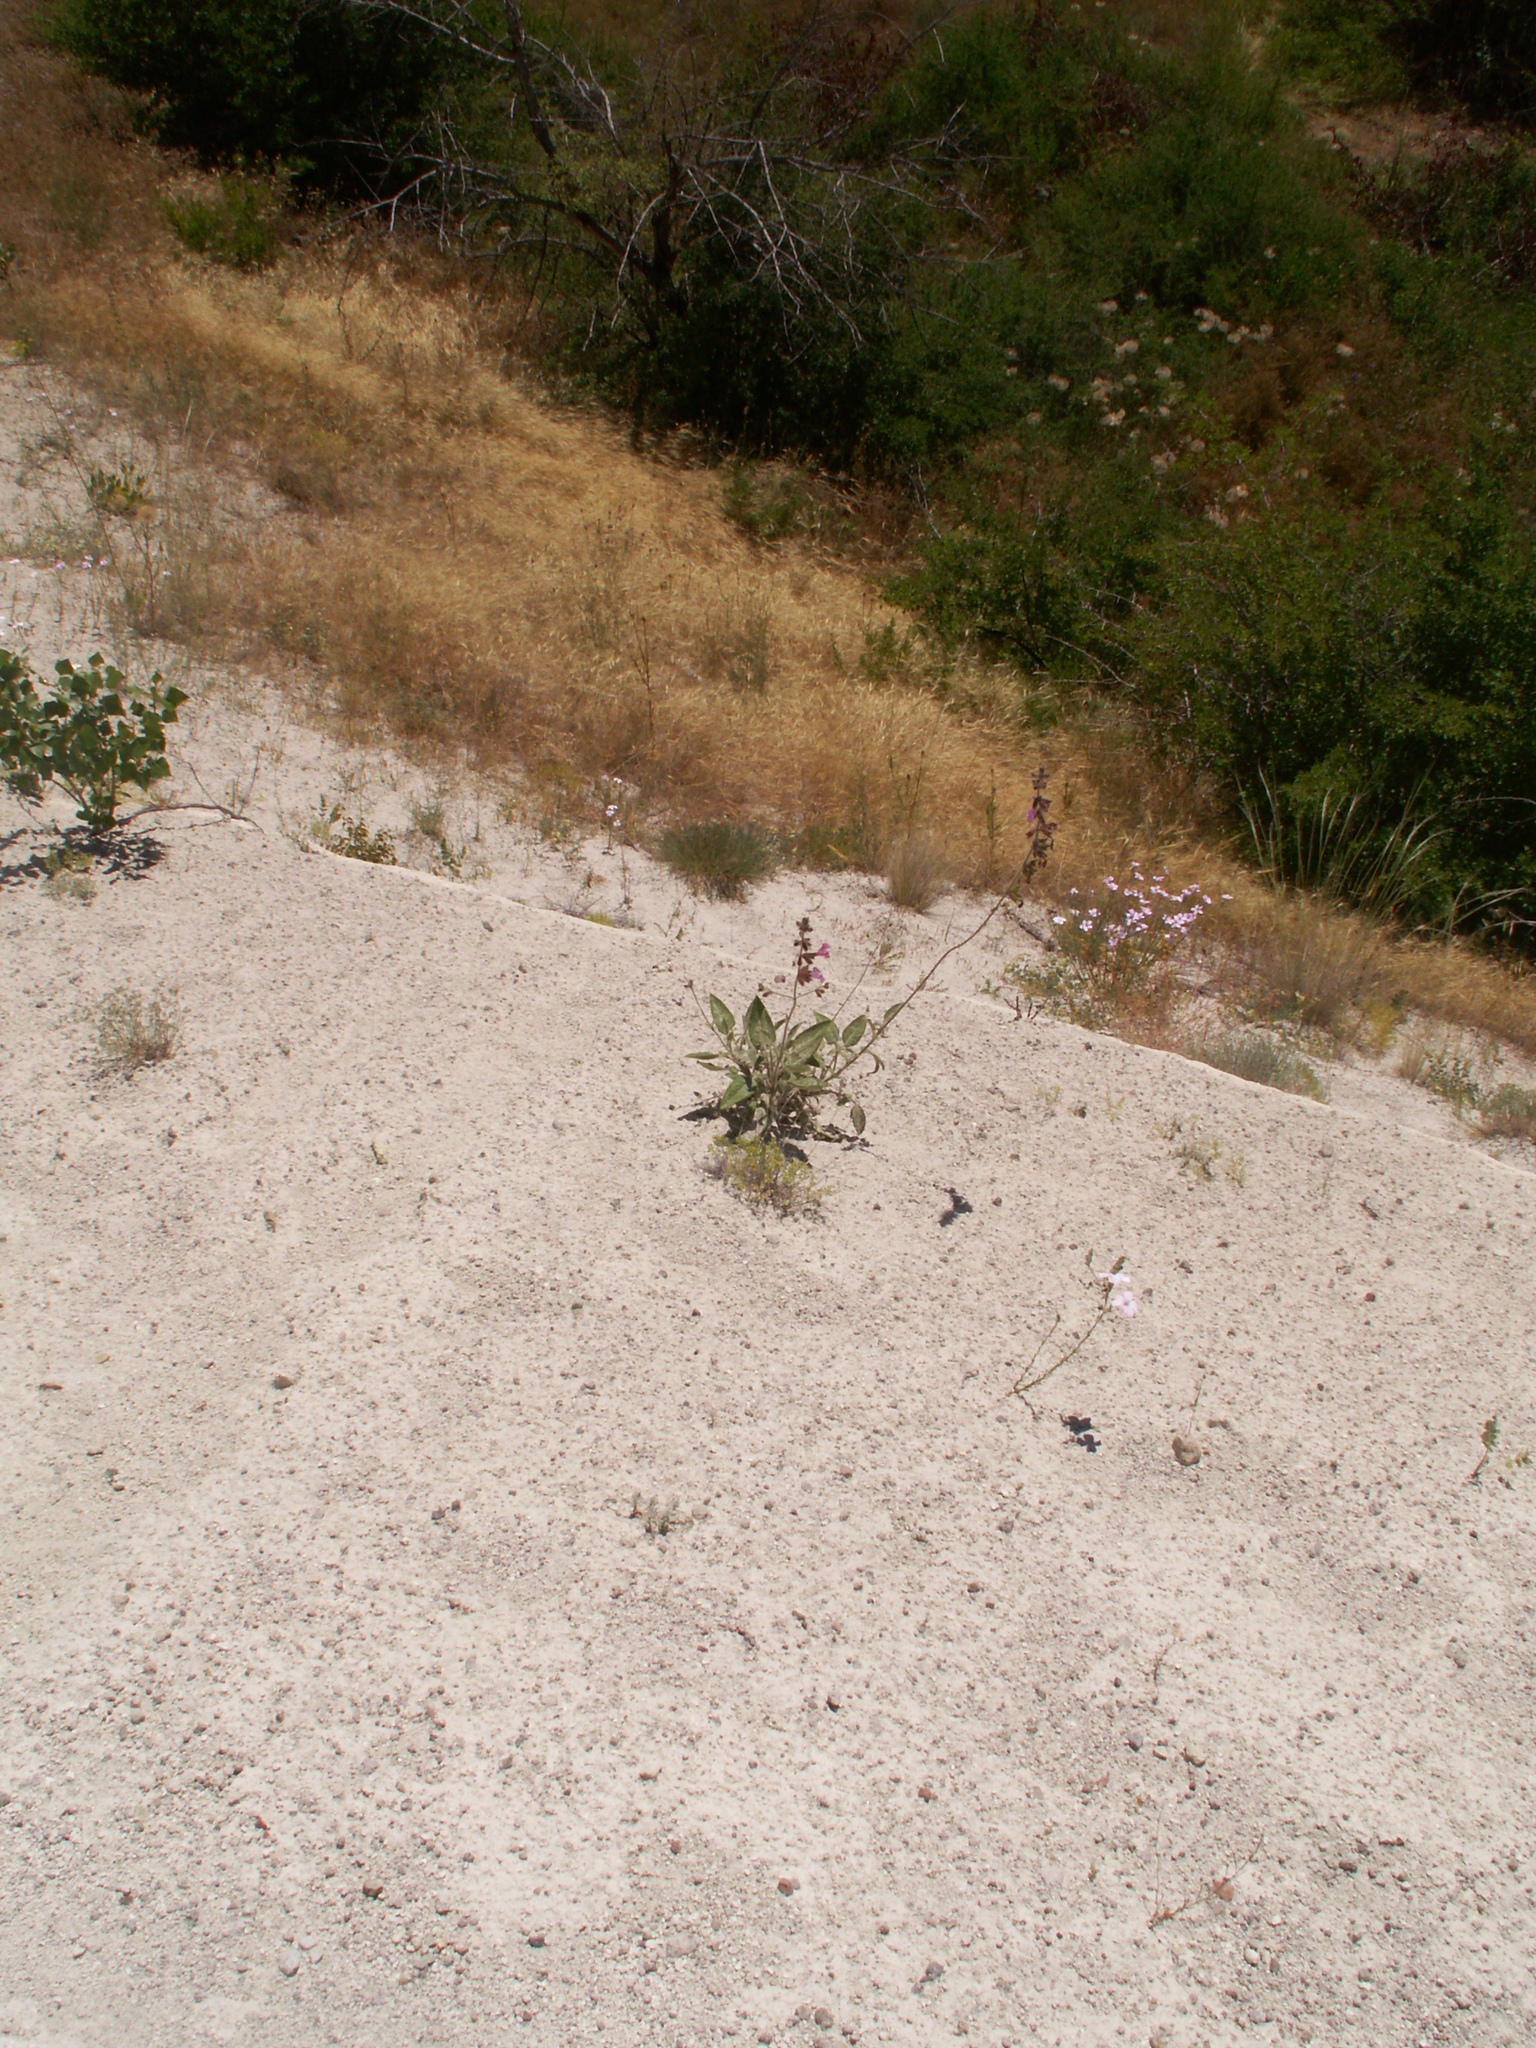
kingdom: Plantae
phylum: Tracheophyta
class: Magnoliopsida
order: Lamiales
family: Lamiaceae
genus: Salvia
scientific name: Salvia recognita
